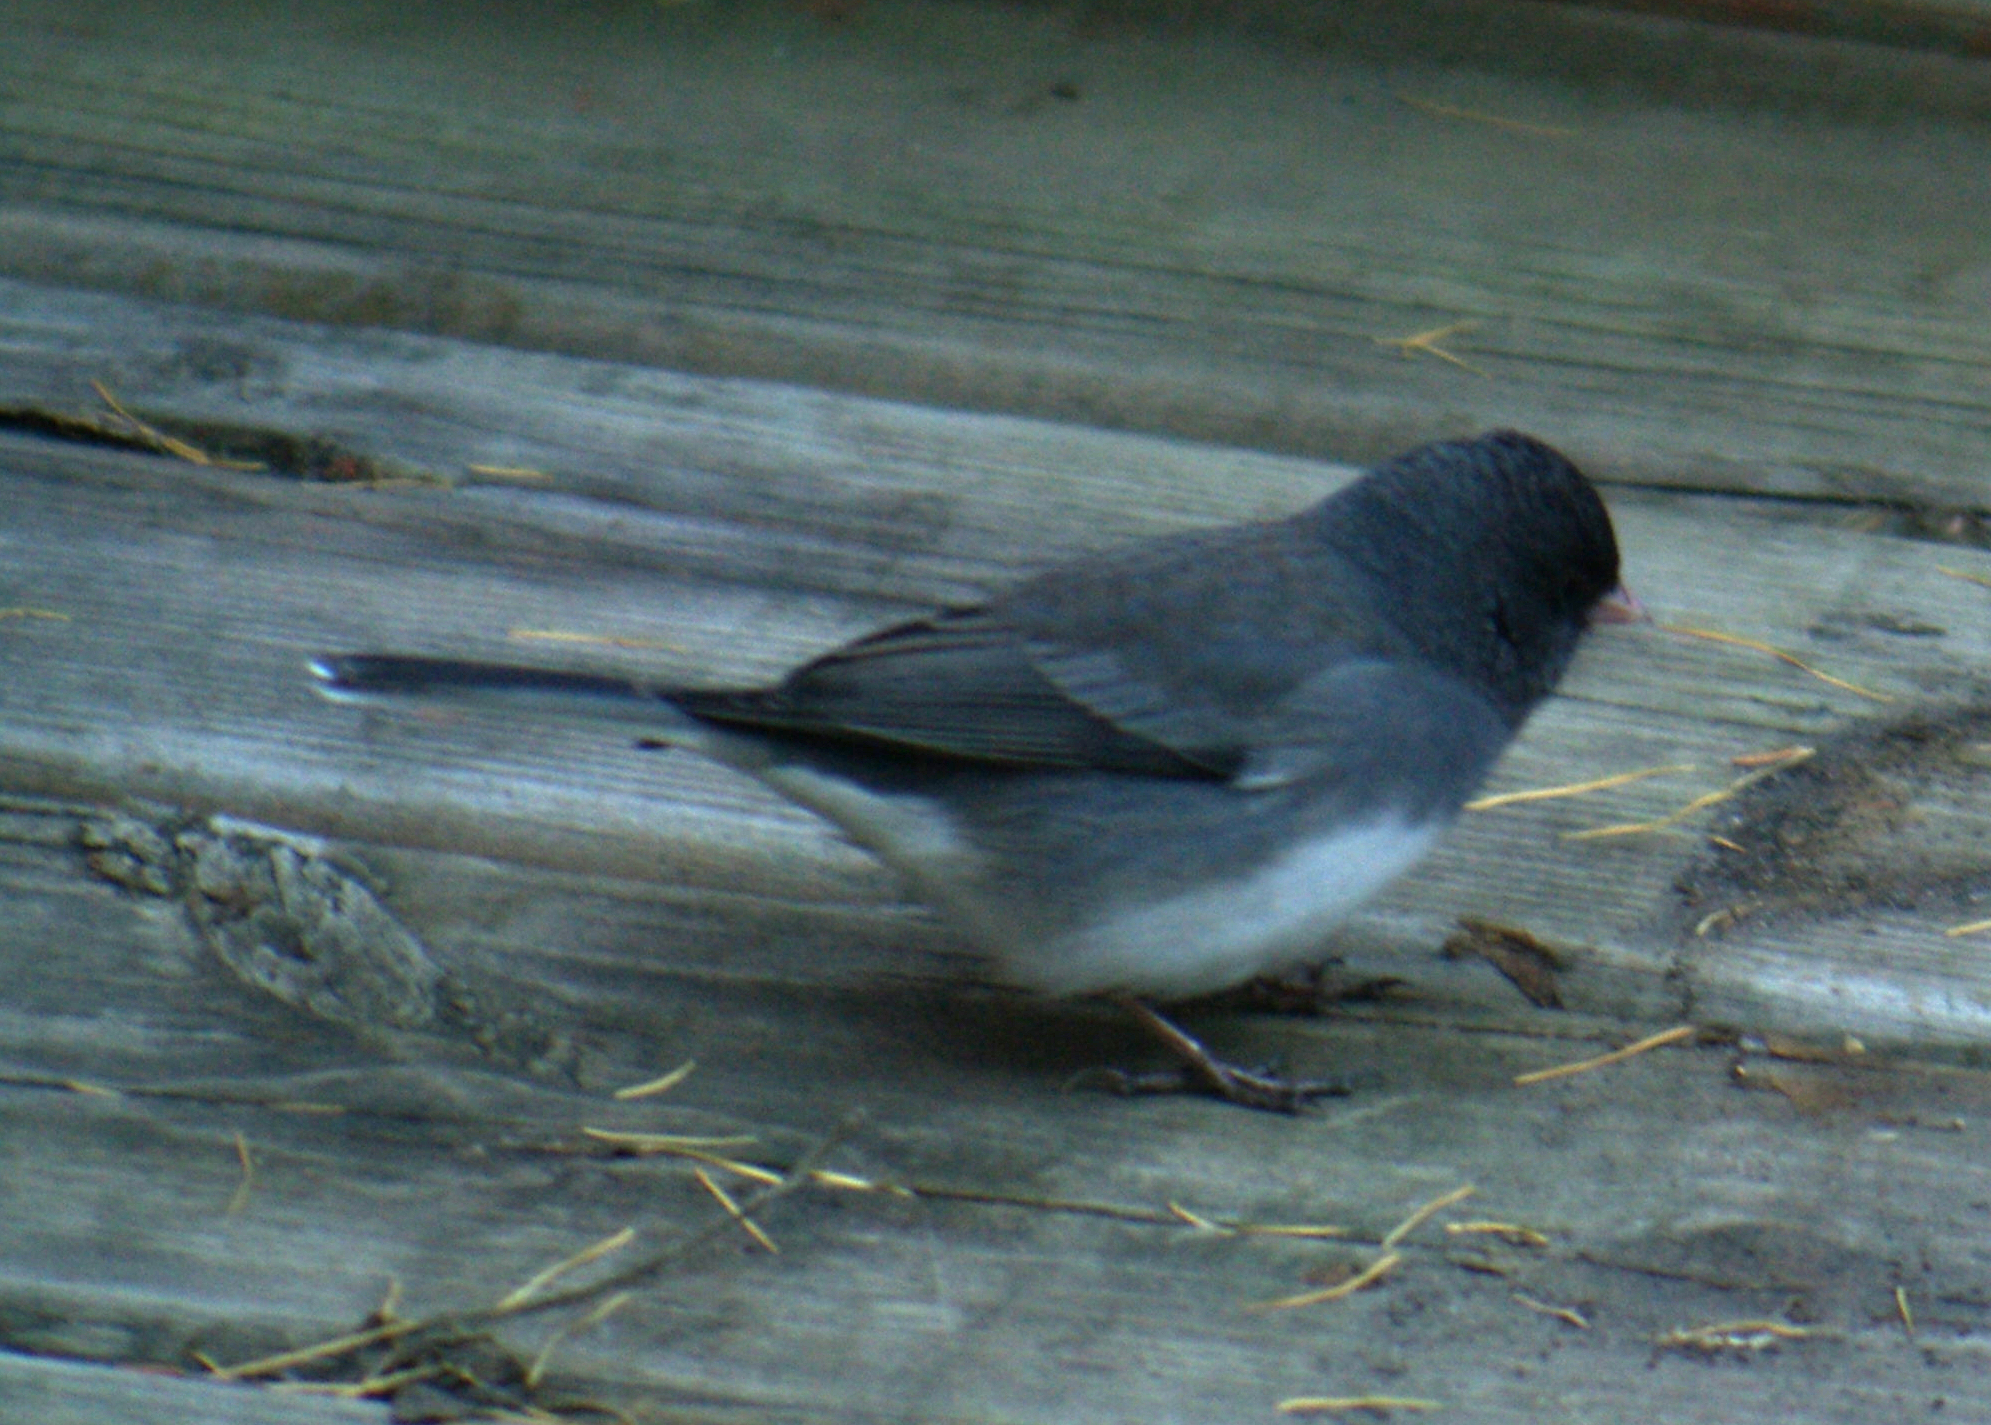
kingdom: Animalia
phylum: Chordata
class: Aves
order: Passeriformes
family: Passerellidae
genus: Junco
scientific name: Junco hyemalis
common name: Dark-eyed junco
